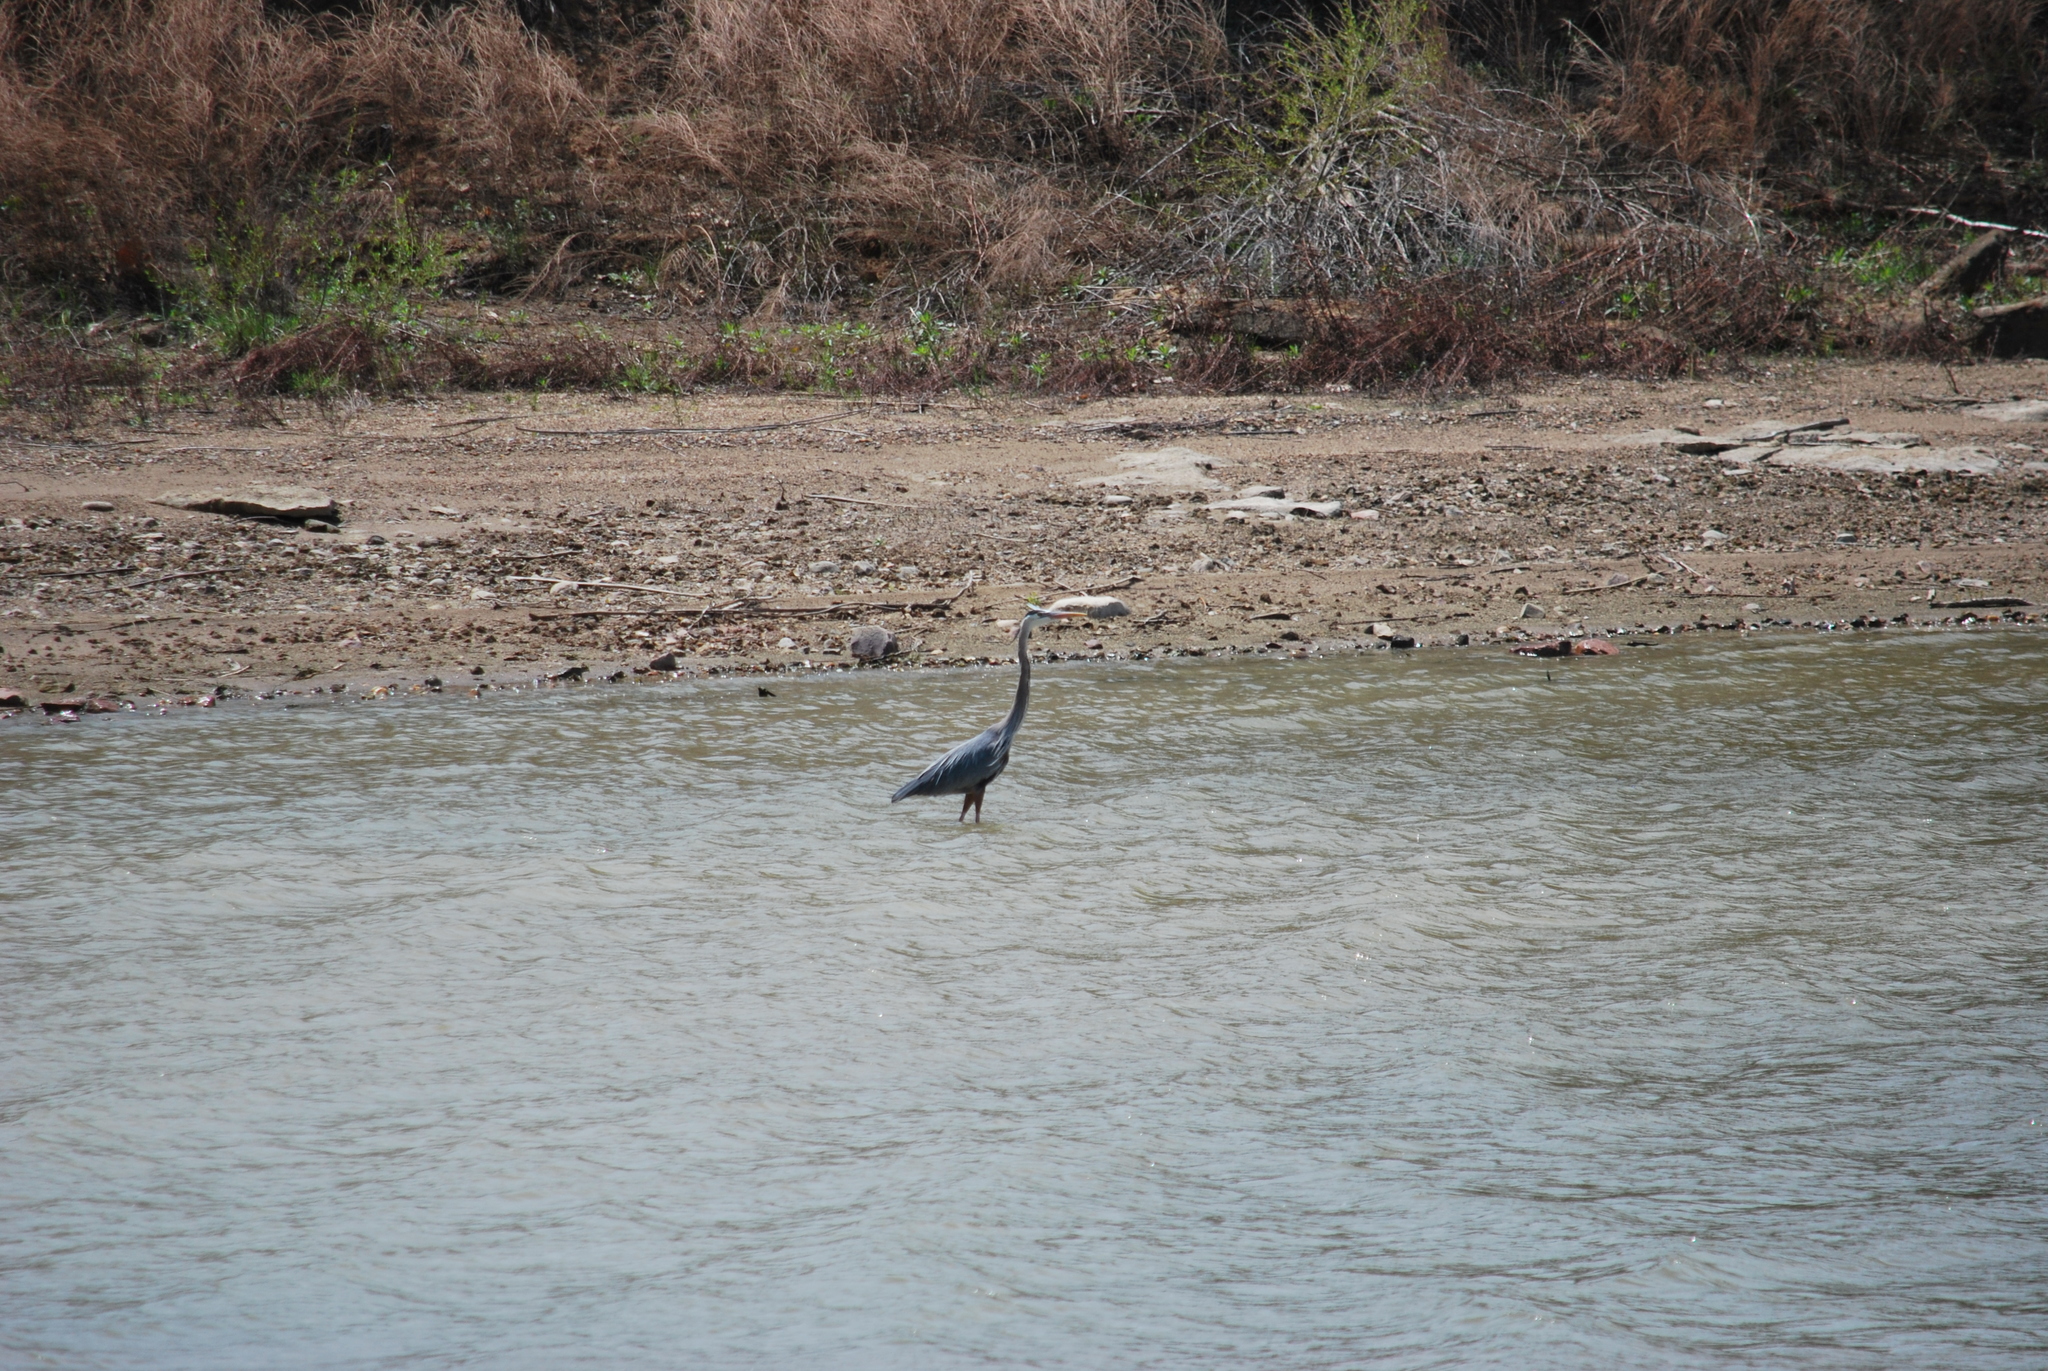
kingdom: Animalia
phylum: Chordata
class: Aves
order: Pelecaniformes
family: Ardeidae
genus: Ardea
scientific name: Ardea herodias
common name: Great blue heron
